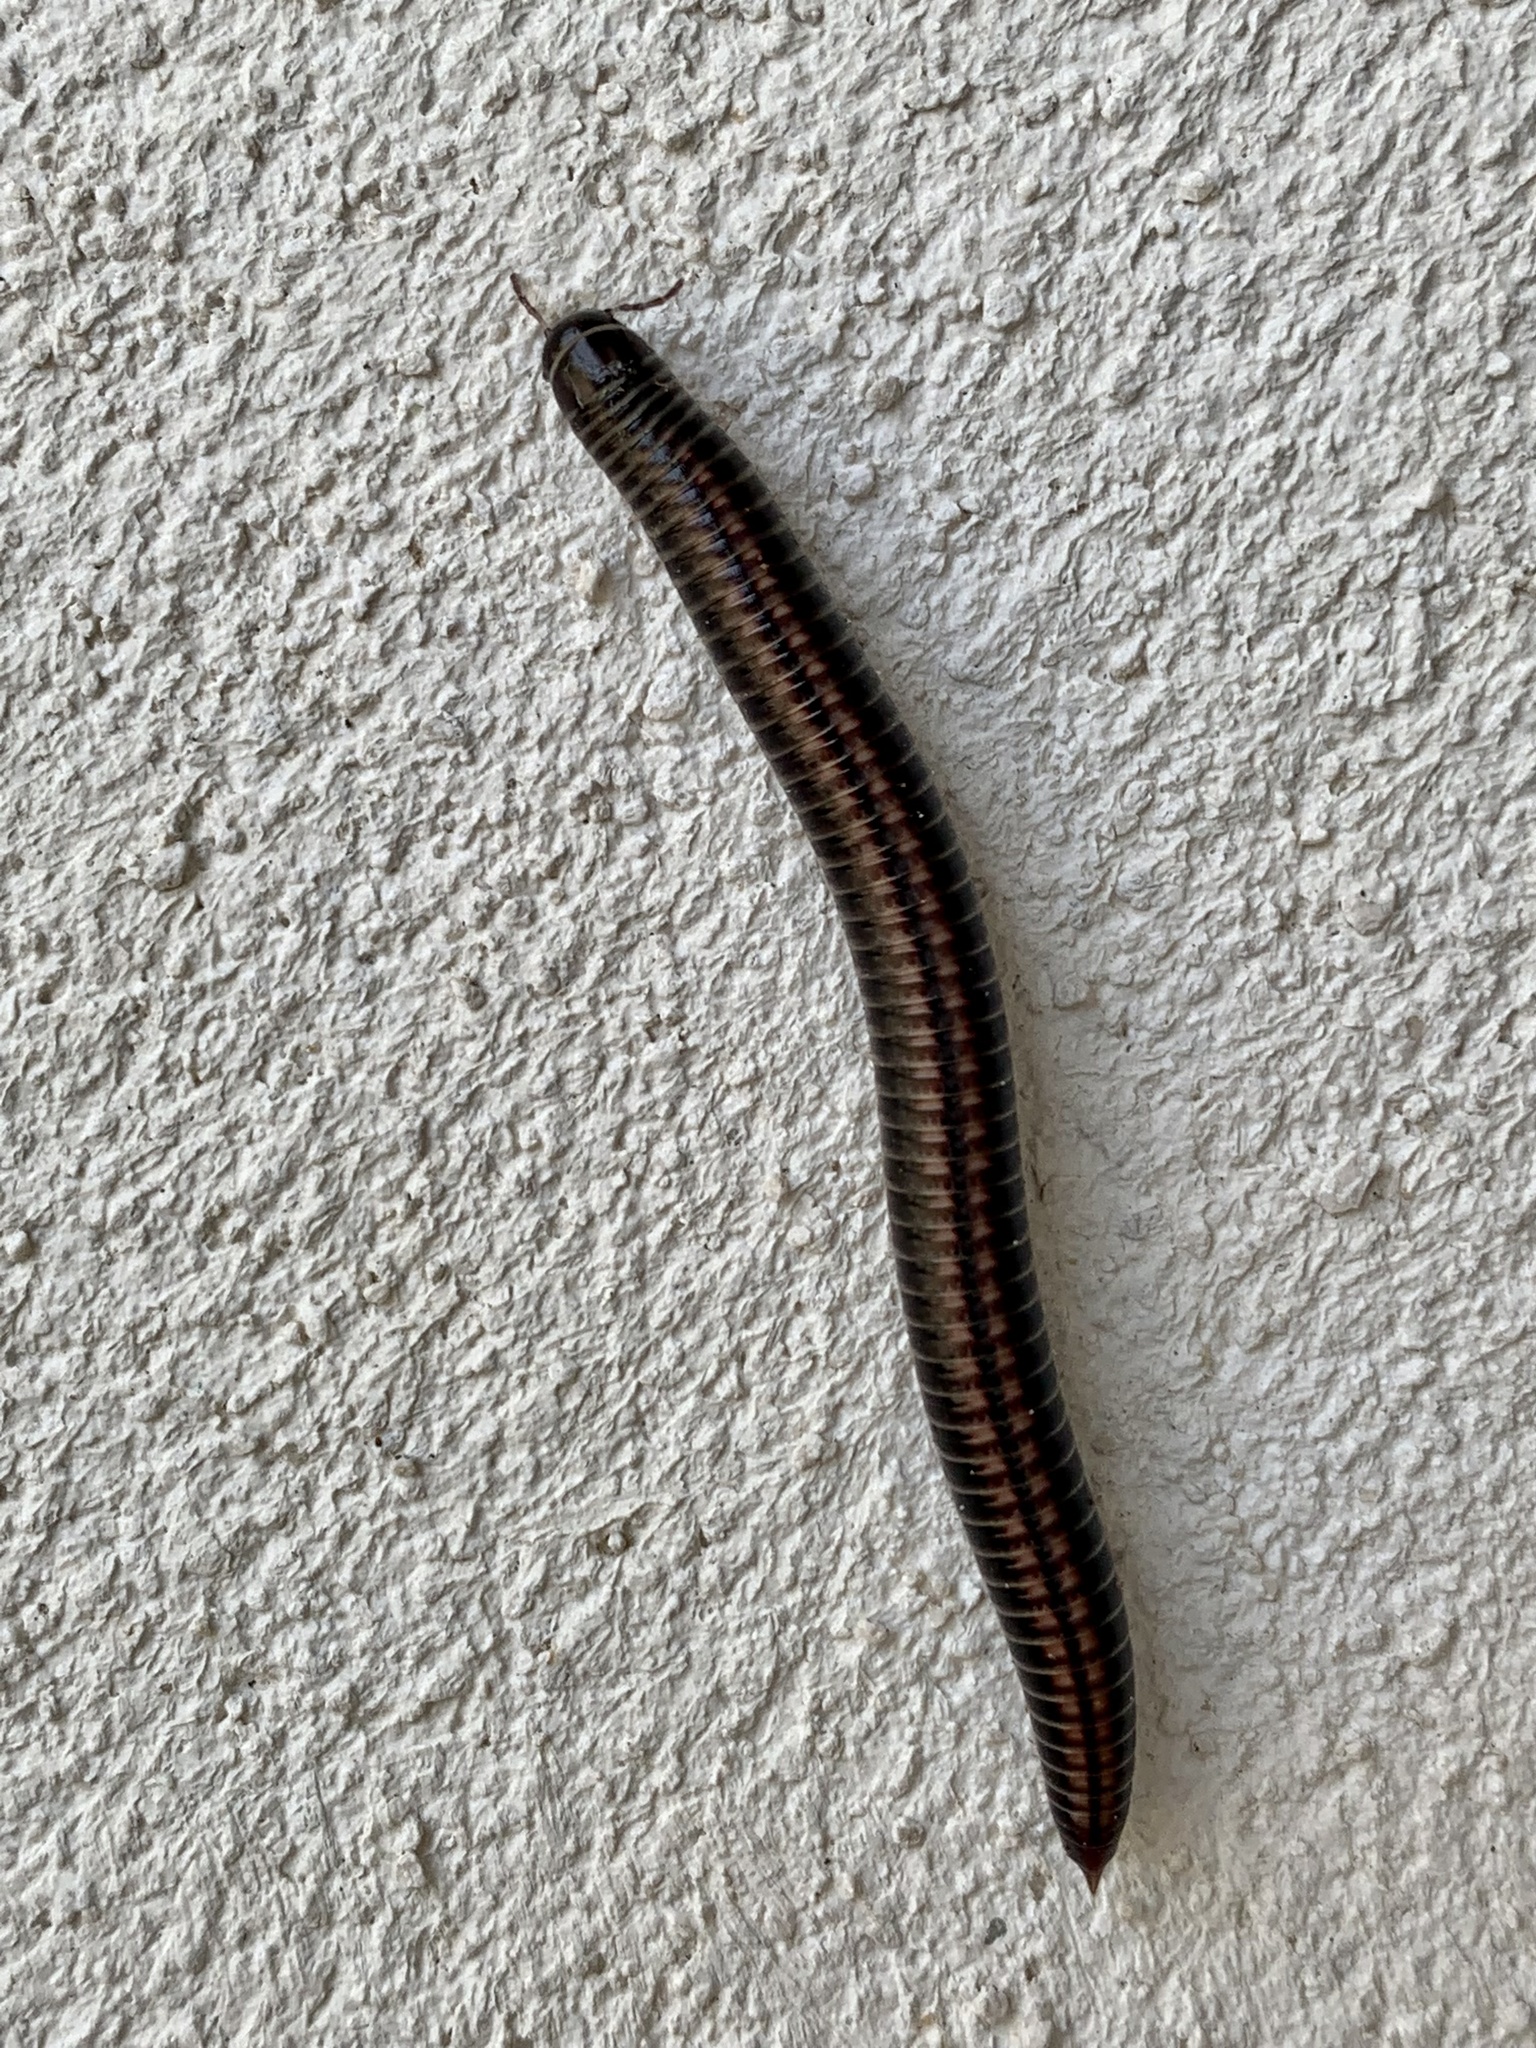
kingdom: Animalia
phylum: Arthropoda
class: Diplopoda
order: Julida
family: Julidae
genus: Ommatoiulus
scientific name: Ommatoiulus sabulosus
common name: Striped millipede
